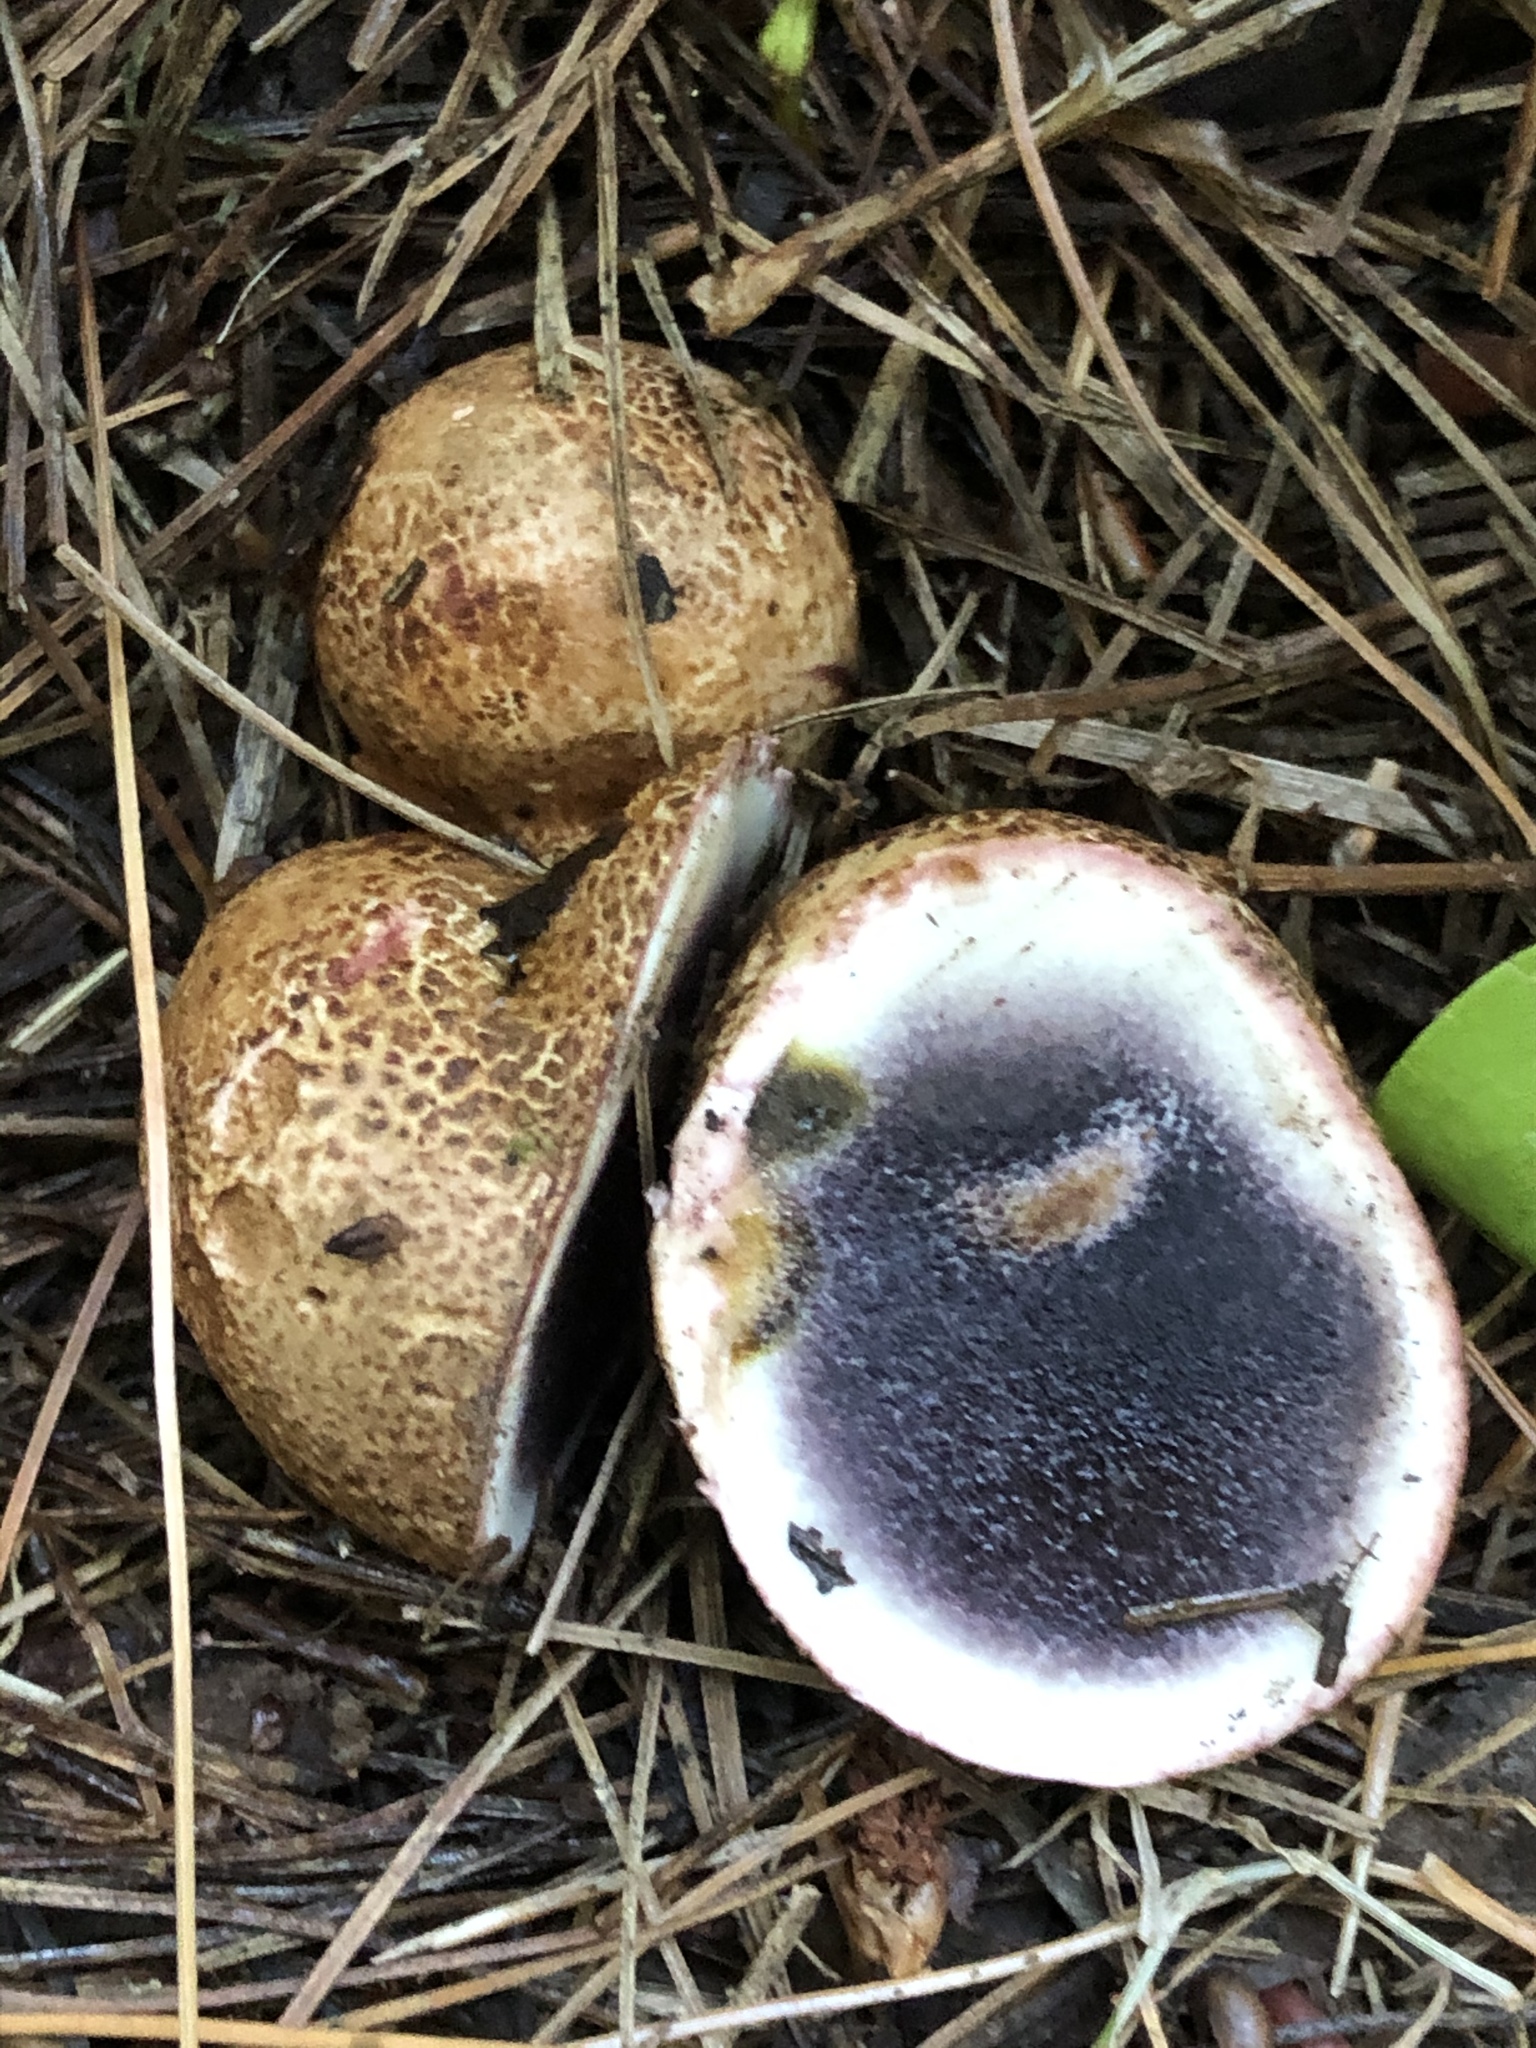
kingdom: Fungi
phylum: Basidiomycota
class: Agaricomycetes
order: Boletales
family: Sclerodermataceae
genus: Scleroderma
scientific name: Scleroderma cepa
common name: Onion earthball
